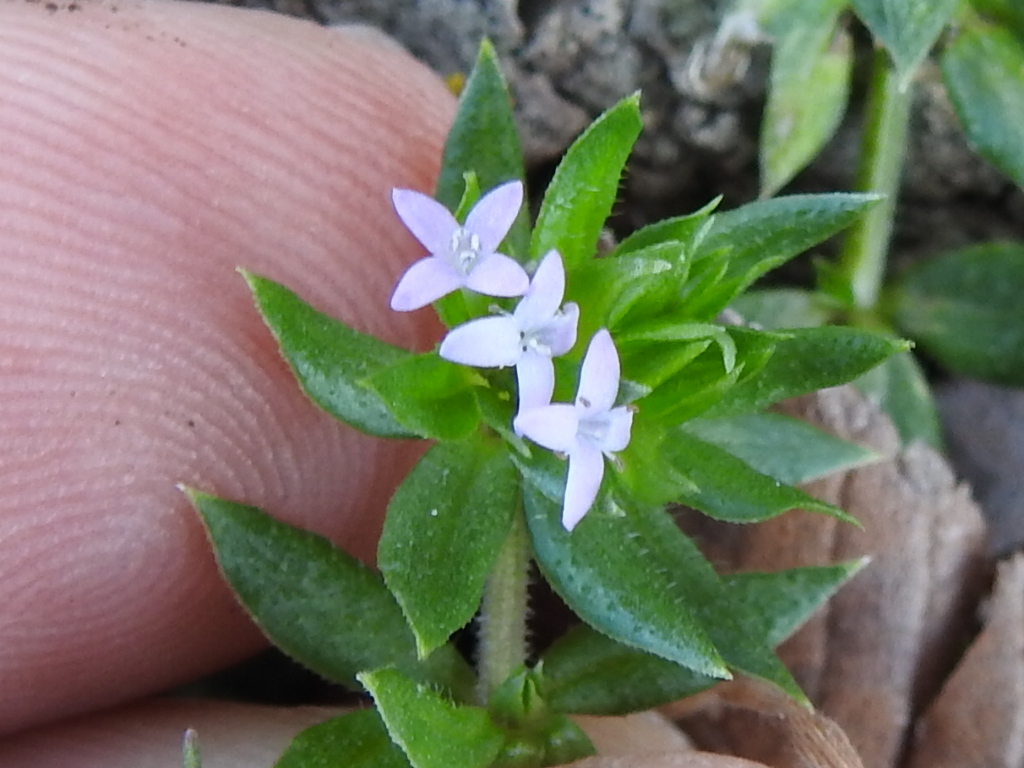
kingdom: Plantae
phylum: Tracheophyta
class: Magnoliopsida
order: Gentianales
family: Rubiaceae
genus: Sherardia
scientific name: Sherardia arvensis
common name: Field madder
